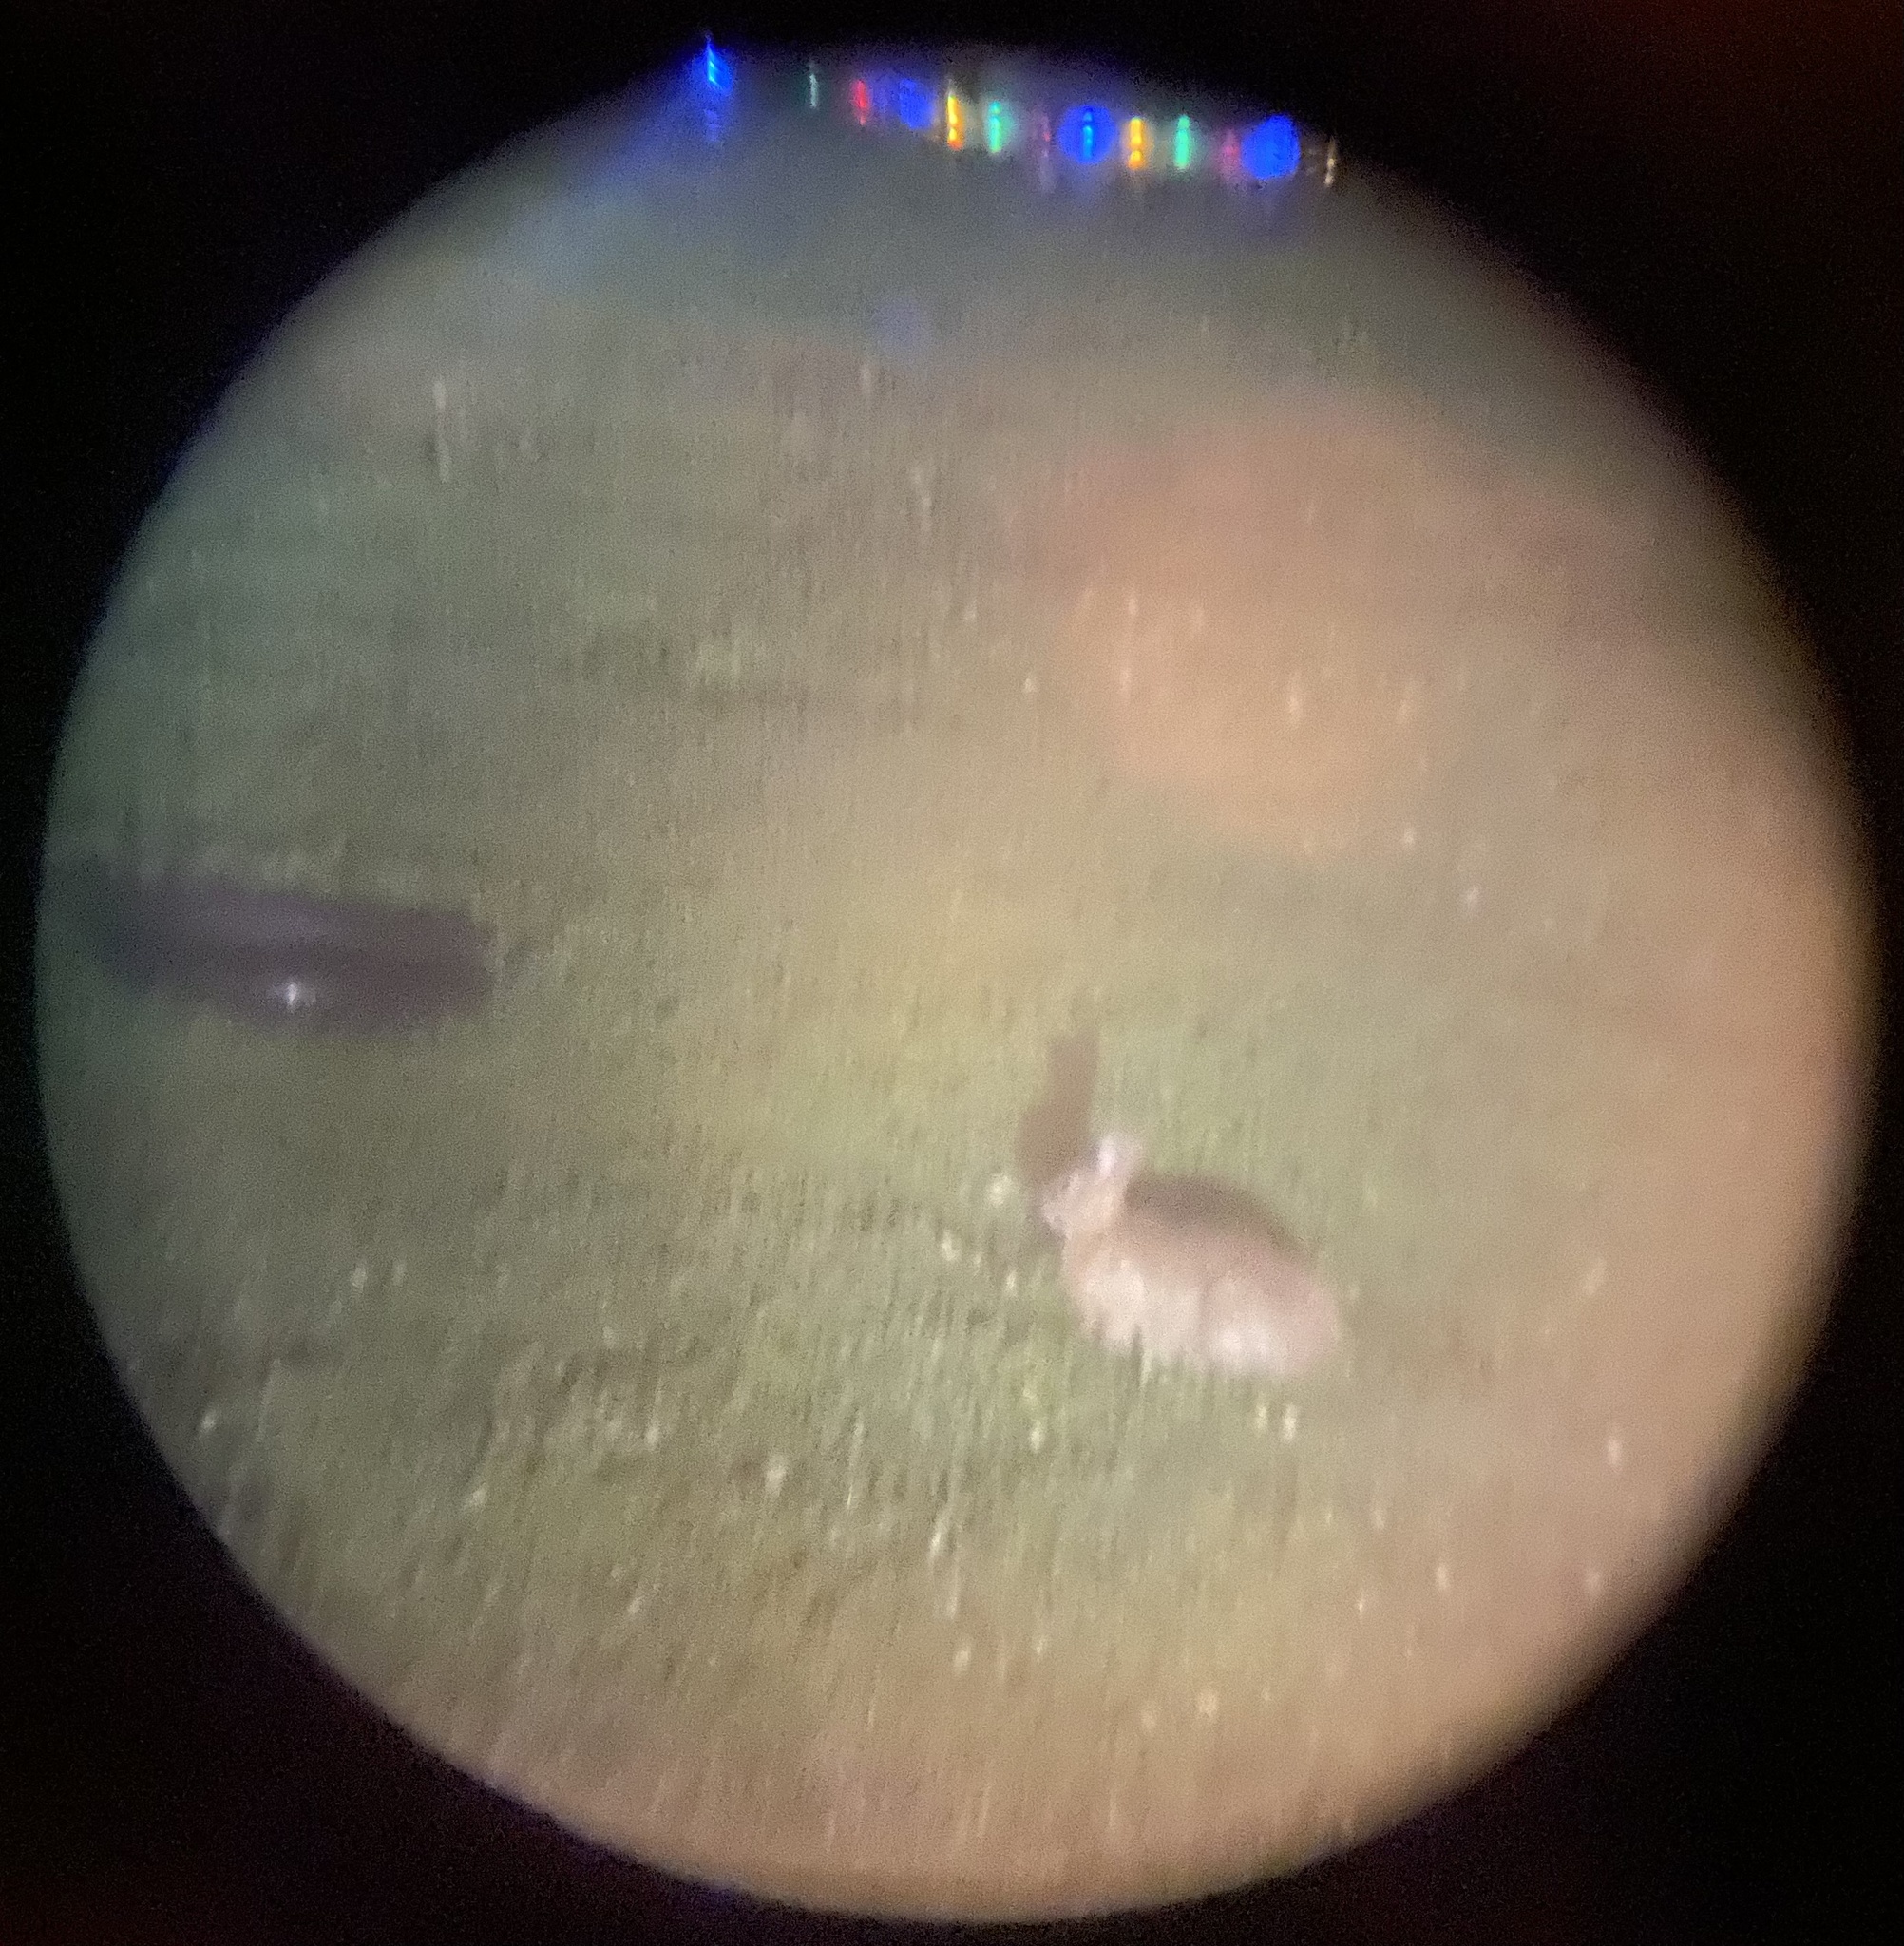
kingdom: Animalia
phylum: Chordata
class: Mammalia
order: Lagomorpha
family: Leporidae
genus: Sylvilagus
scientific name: Sylvilagus floridanus
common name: Eastern cottontail
